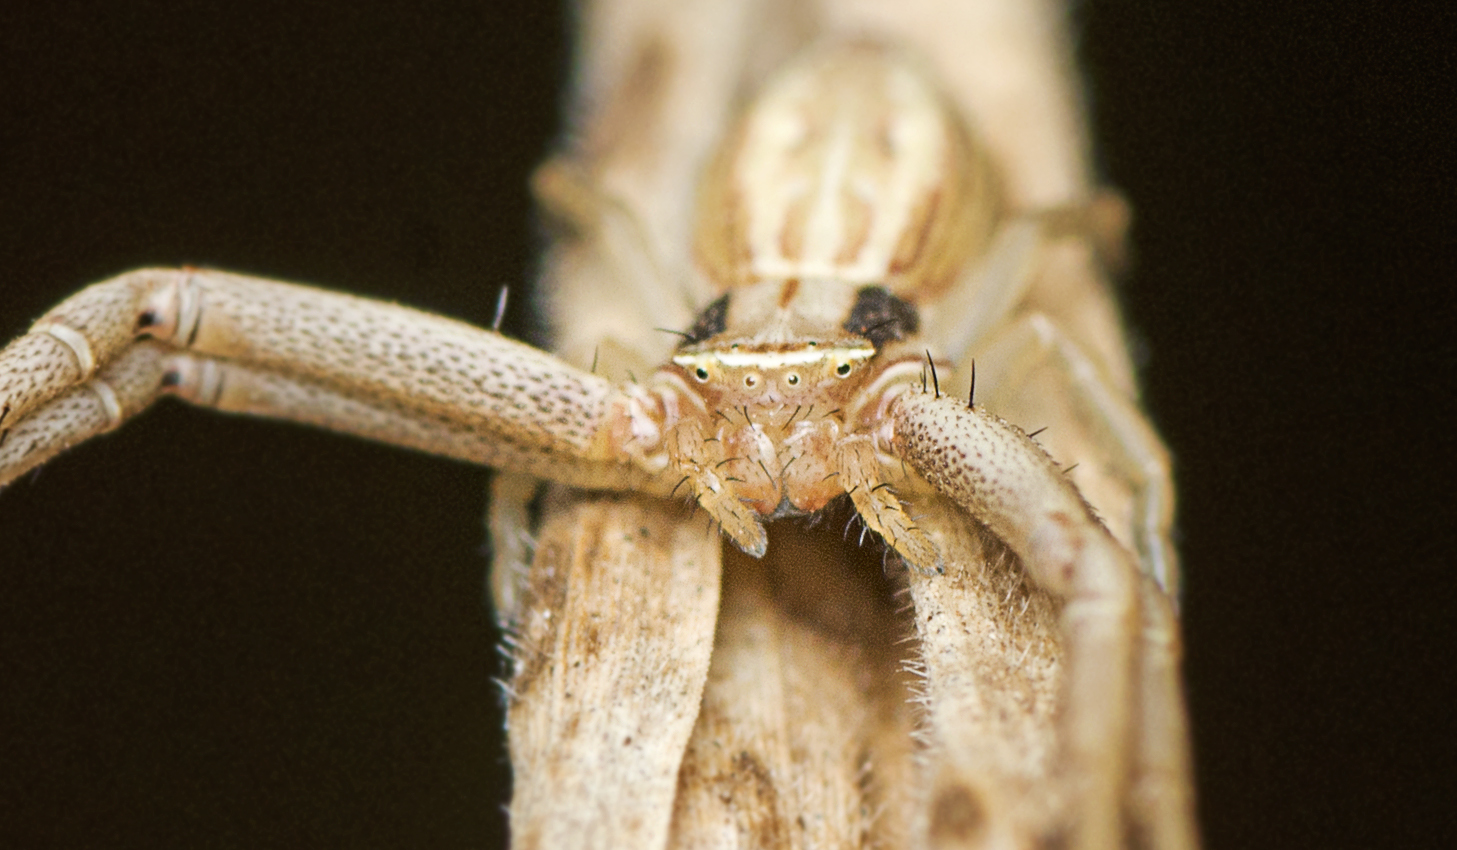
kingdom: Animalia
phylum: Arthropoda
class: Arachnida
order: Araneae
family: Thomisidae
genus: Runcinia
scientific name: Runcinia acuminata
